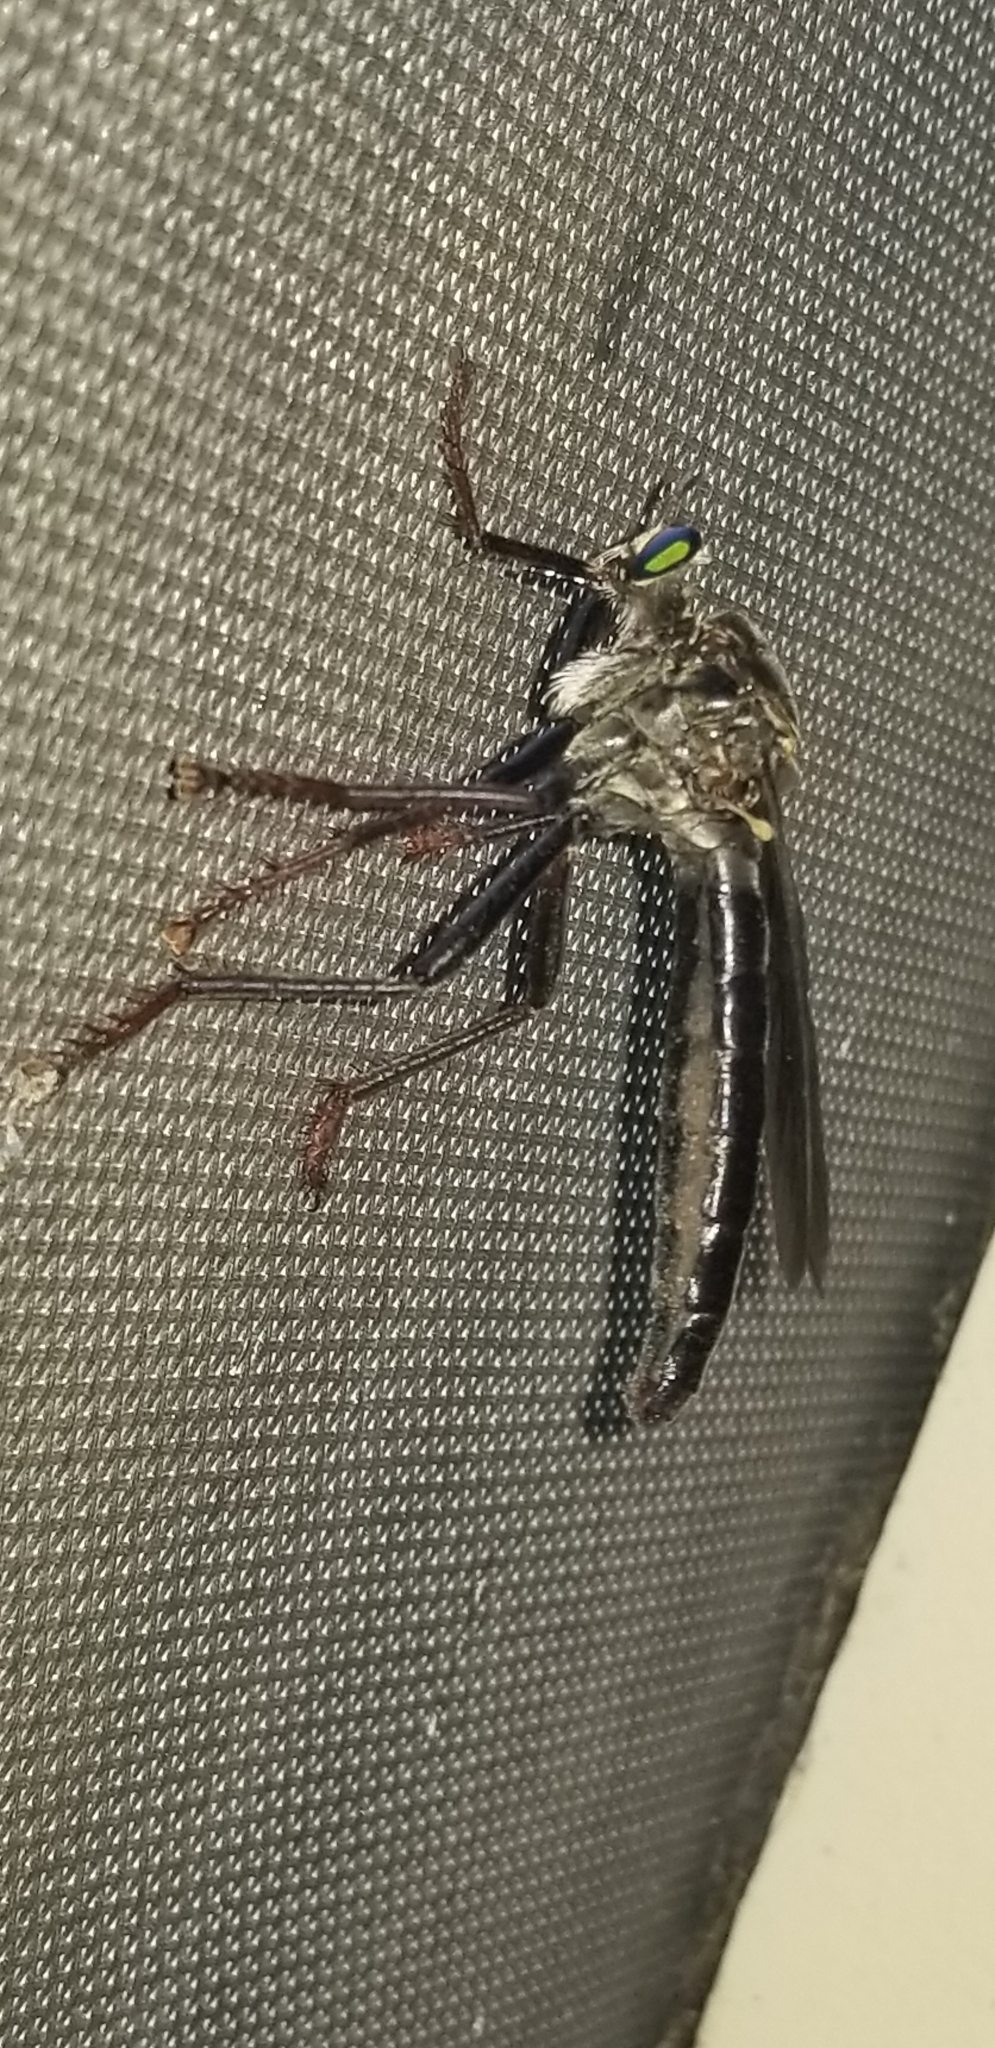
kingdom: Animalia
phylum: Arthropoda
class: Insecta
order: Diptera
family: Asilidae
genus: Microstylum
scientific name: Microstylum morosum
